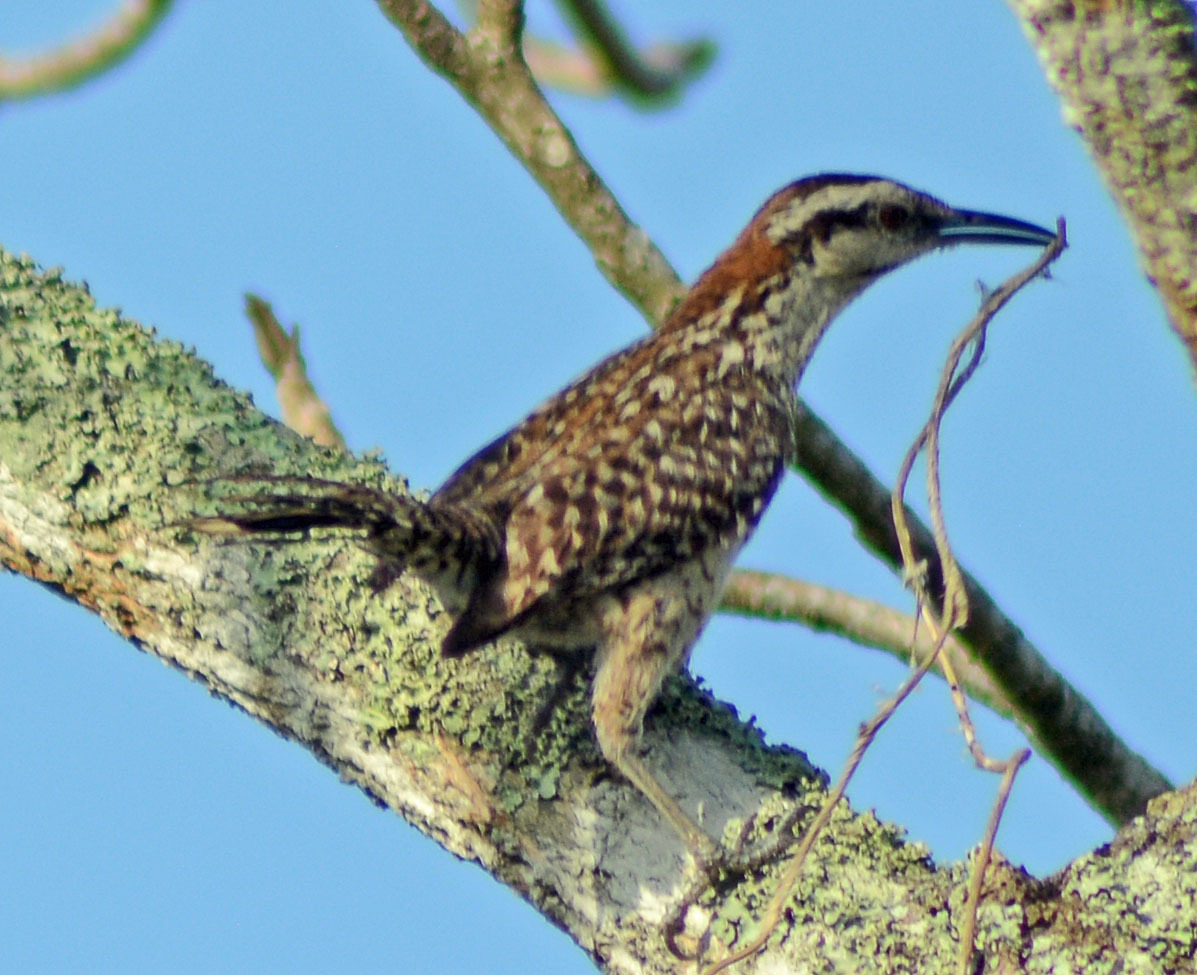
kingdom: Animalia
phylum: Chordata
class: Aves
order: Passeriformes
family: Troglodytidae
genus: Campylorhynchus
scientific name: Campylorhynchus rufinucha
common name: Rufous-naped wren
